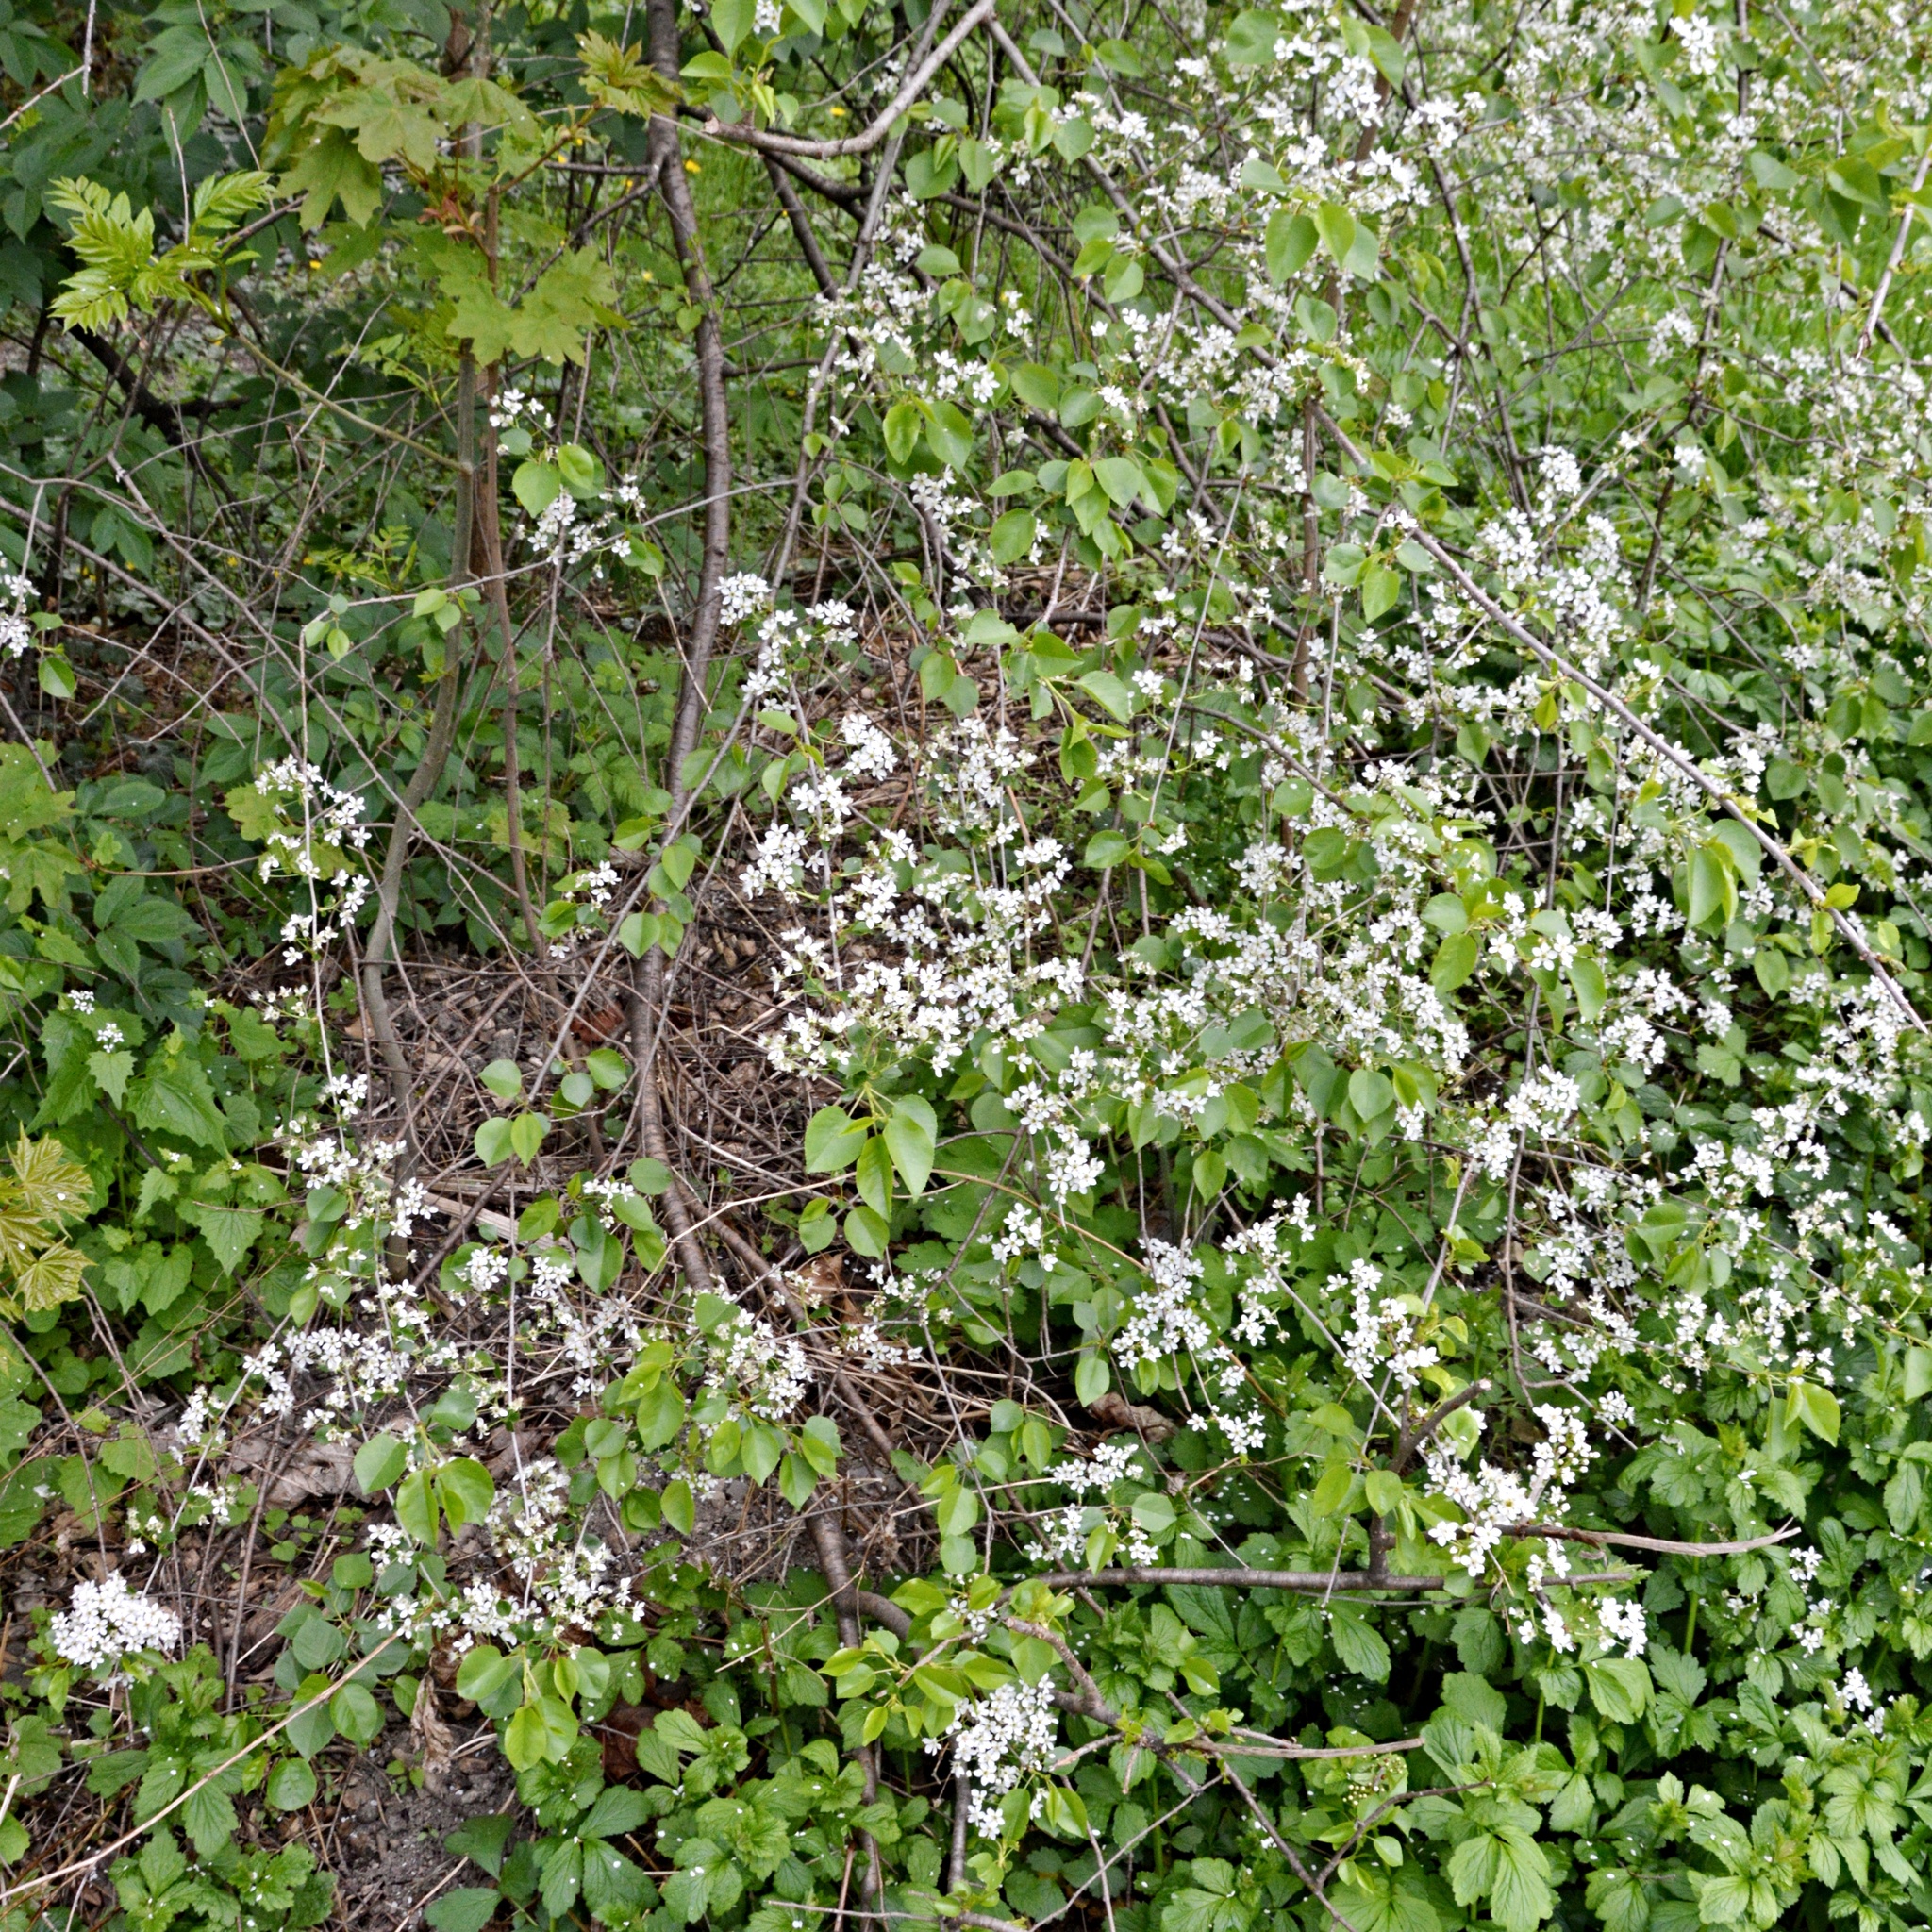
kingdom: Plantae
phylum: Tracheophyta
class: Magnoliopsida
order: Rosales
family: Rosaceae
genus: Prunus
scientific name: Prunus mahaleb
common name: Mahaleb cherry
